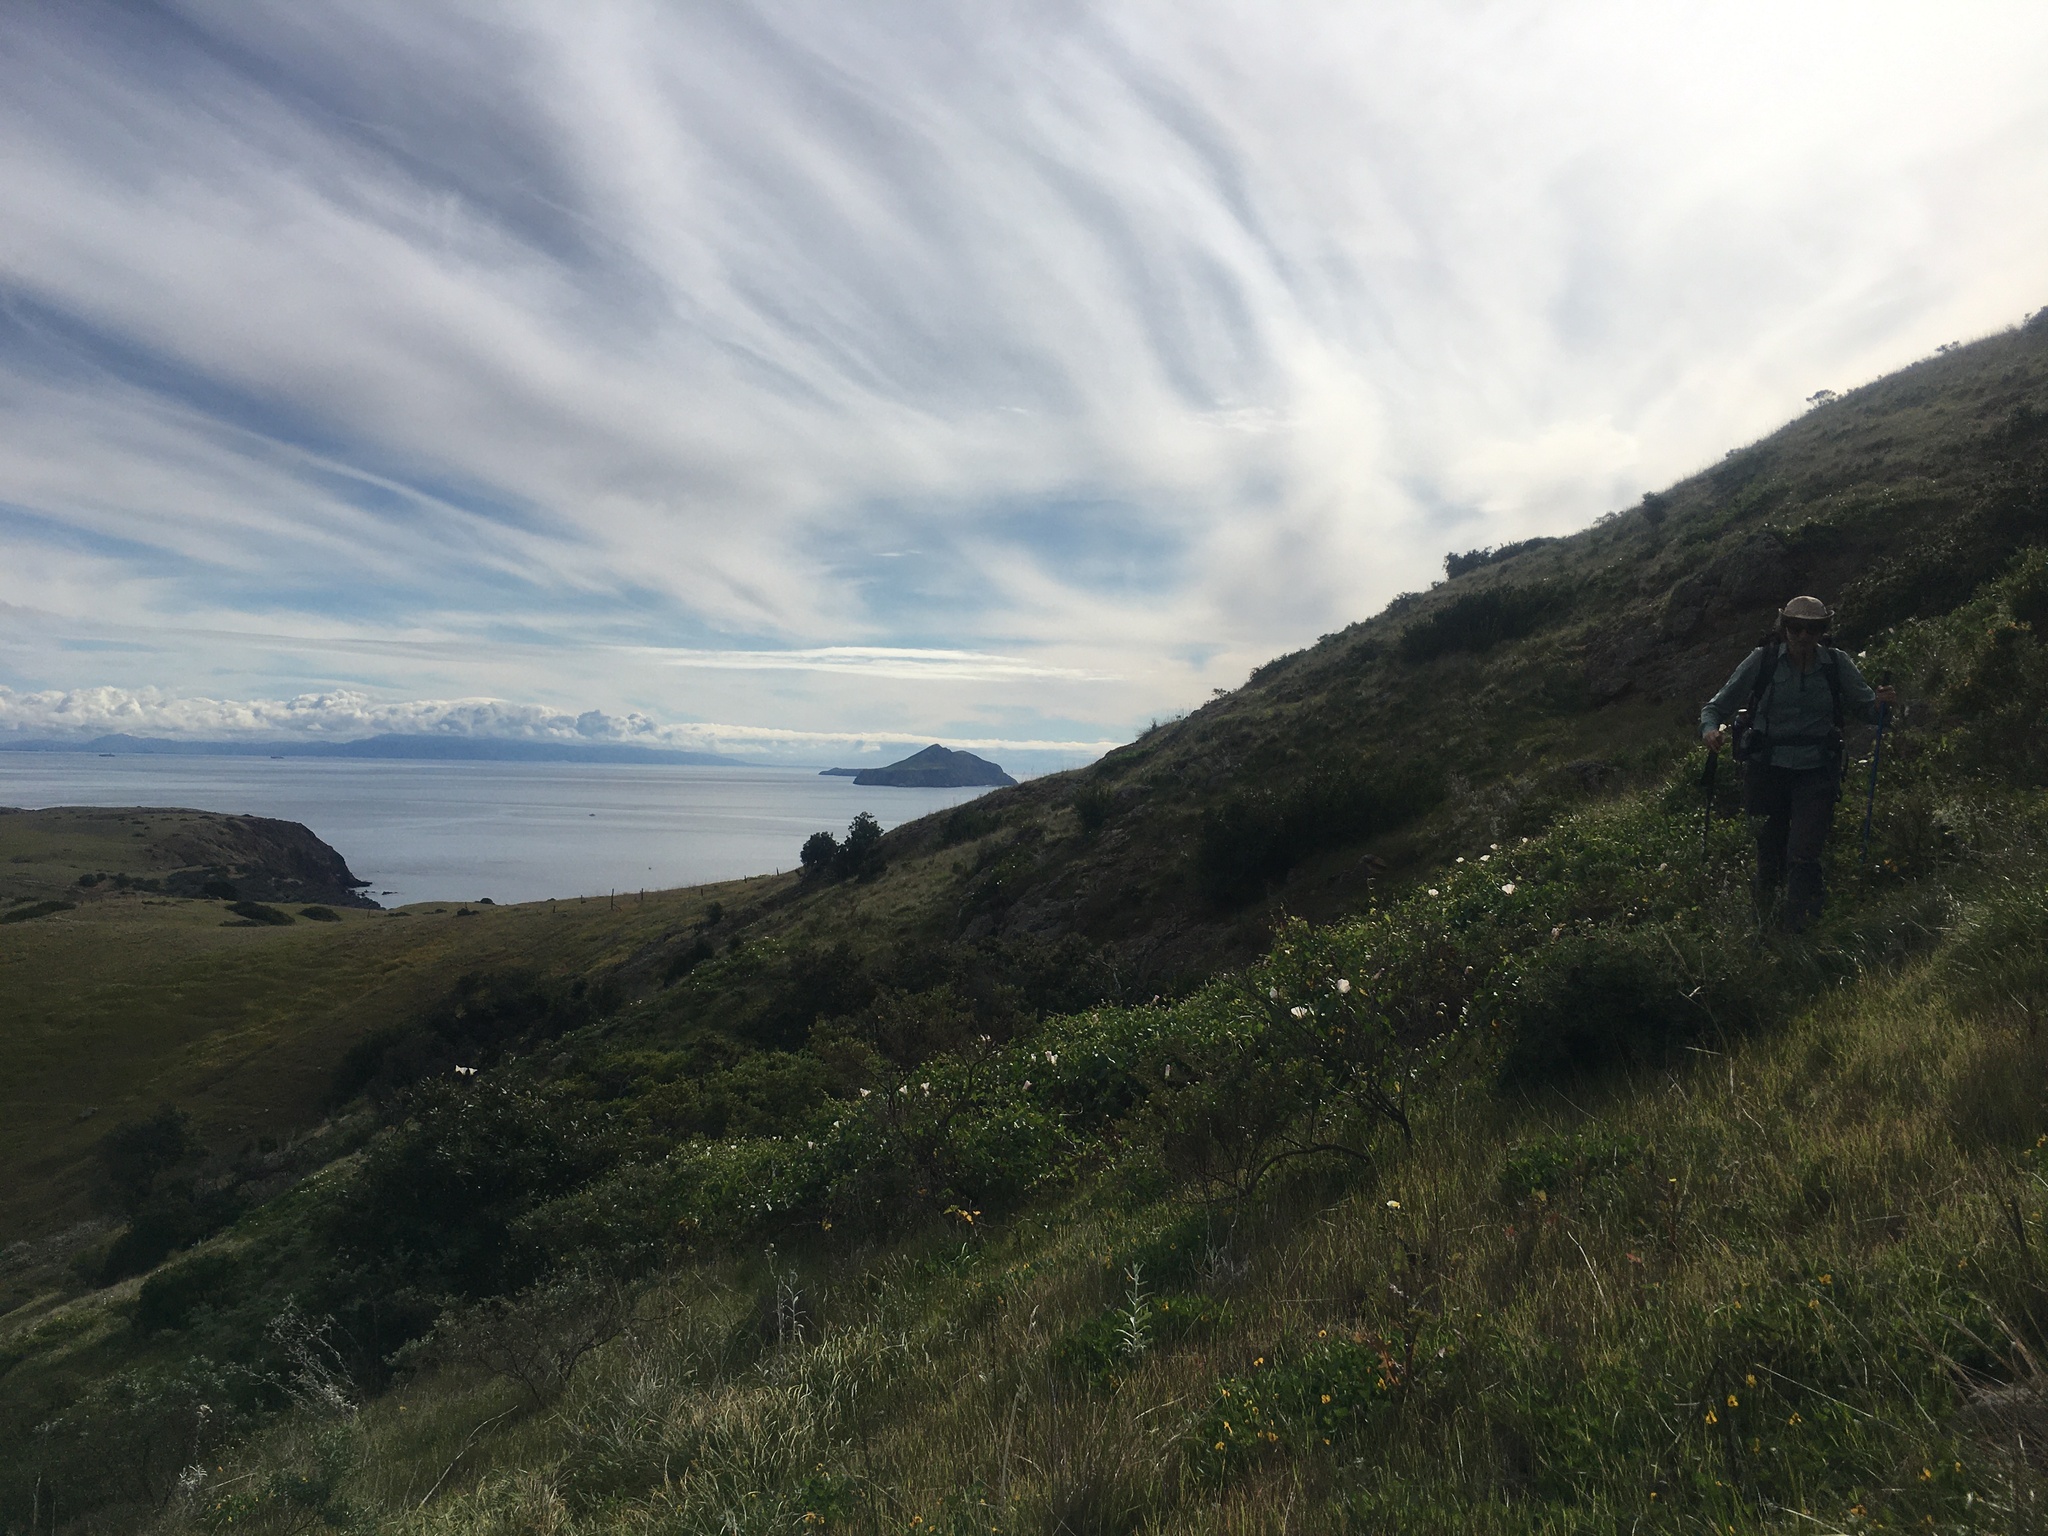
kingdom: Plantae
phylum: Tracheophyta
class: Magnoliopsida
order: Solanales
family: Convolvulaceae
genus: Calystegia
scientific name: Calystegia macrostegia
